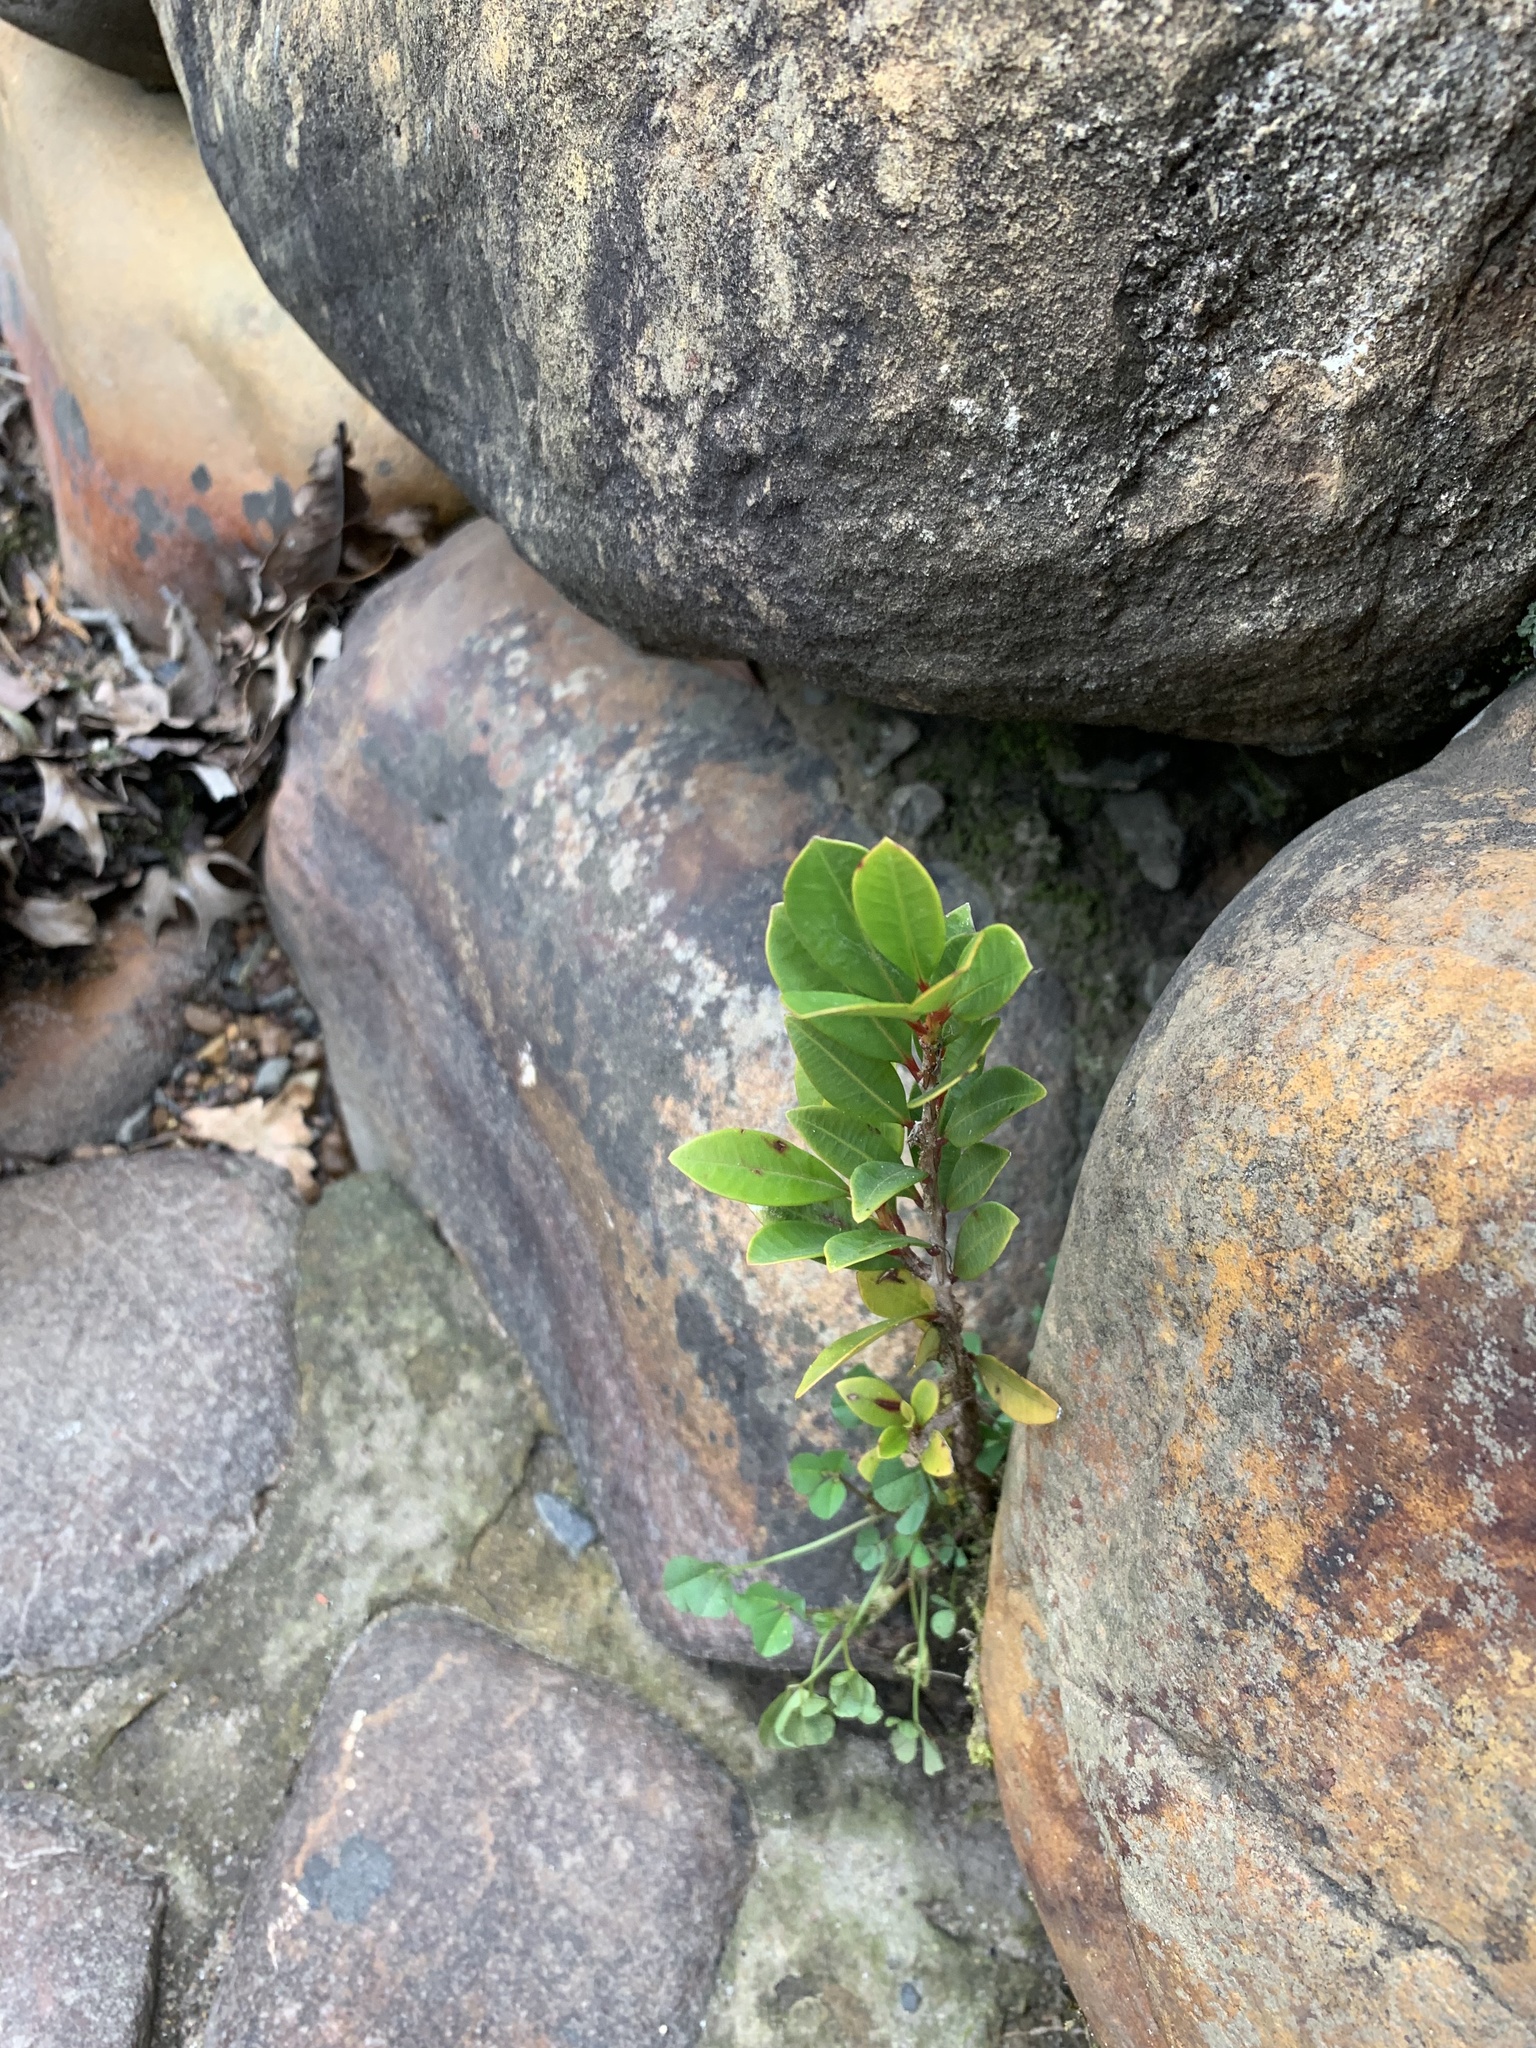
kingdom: Plantae
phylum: Tracheophyta
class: Magnoliopsida
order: Myrtales
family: Myrtaceae
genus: Syzygium
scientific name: Syzygium australe
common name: Australian brush-cherry
